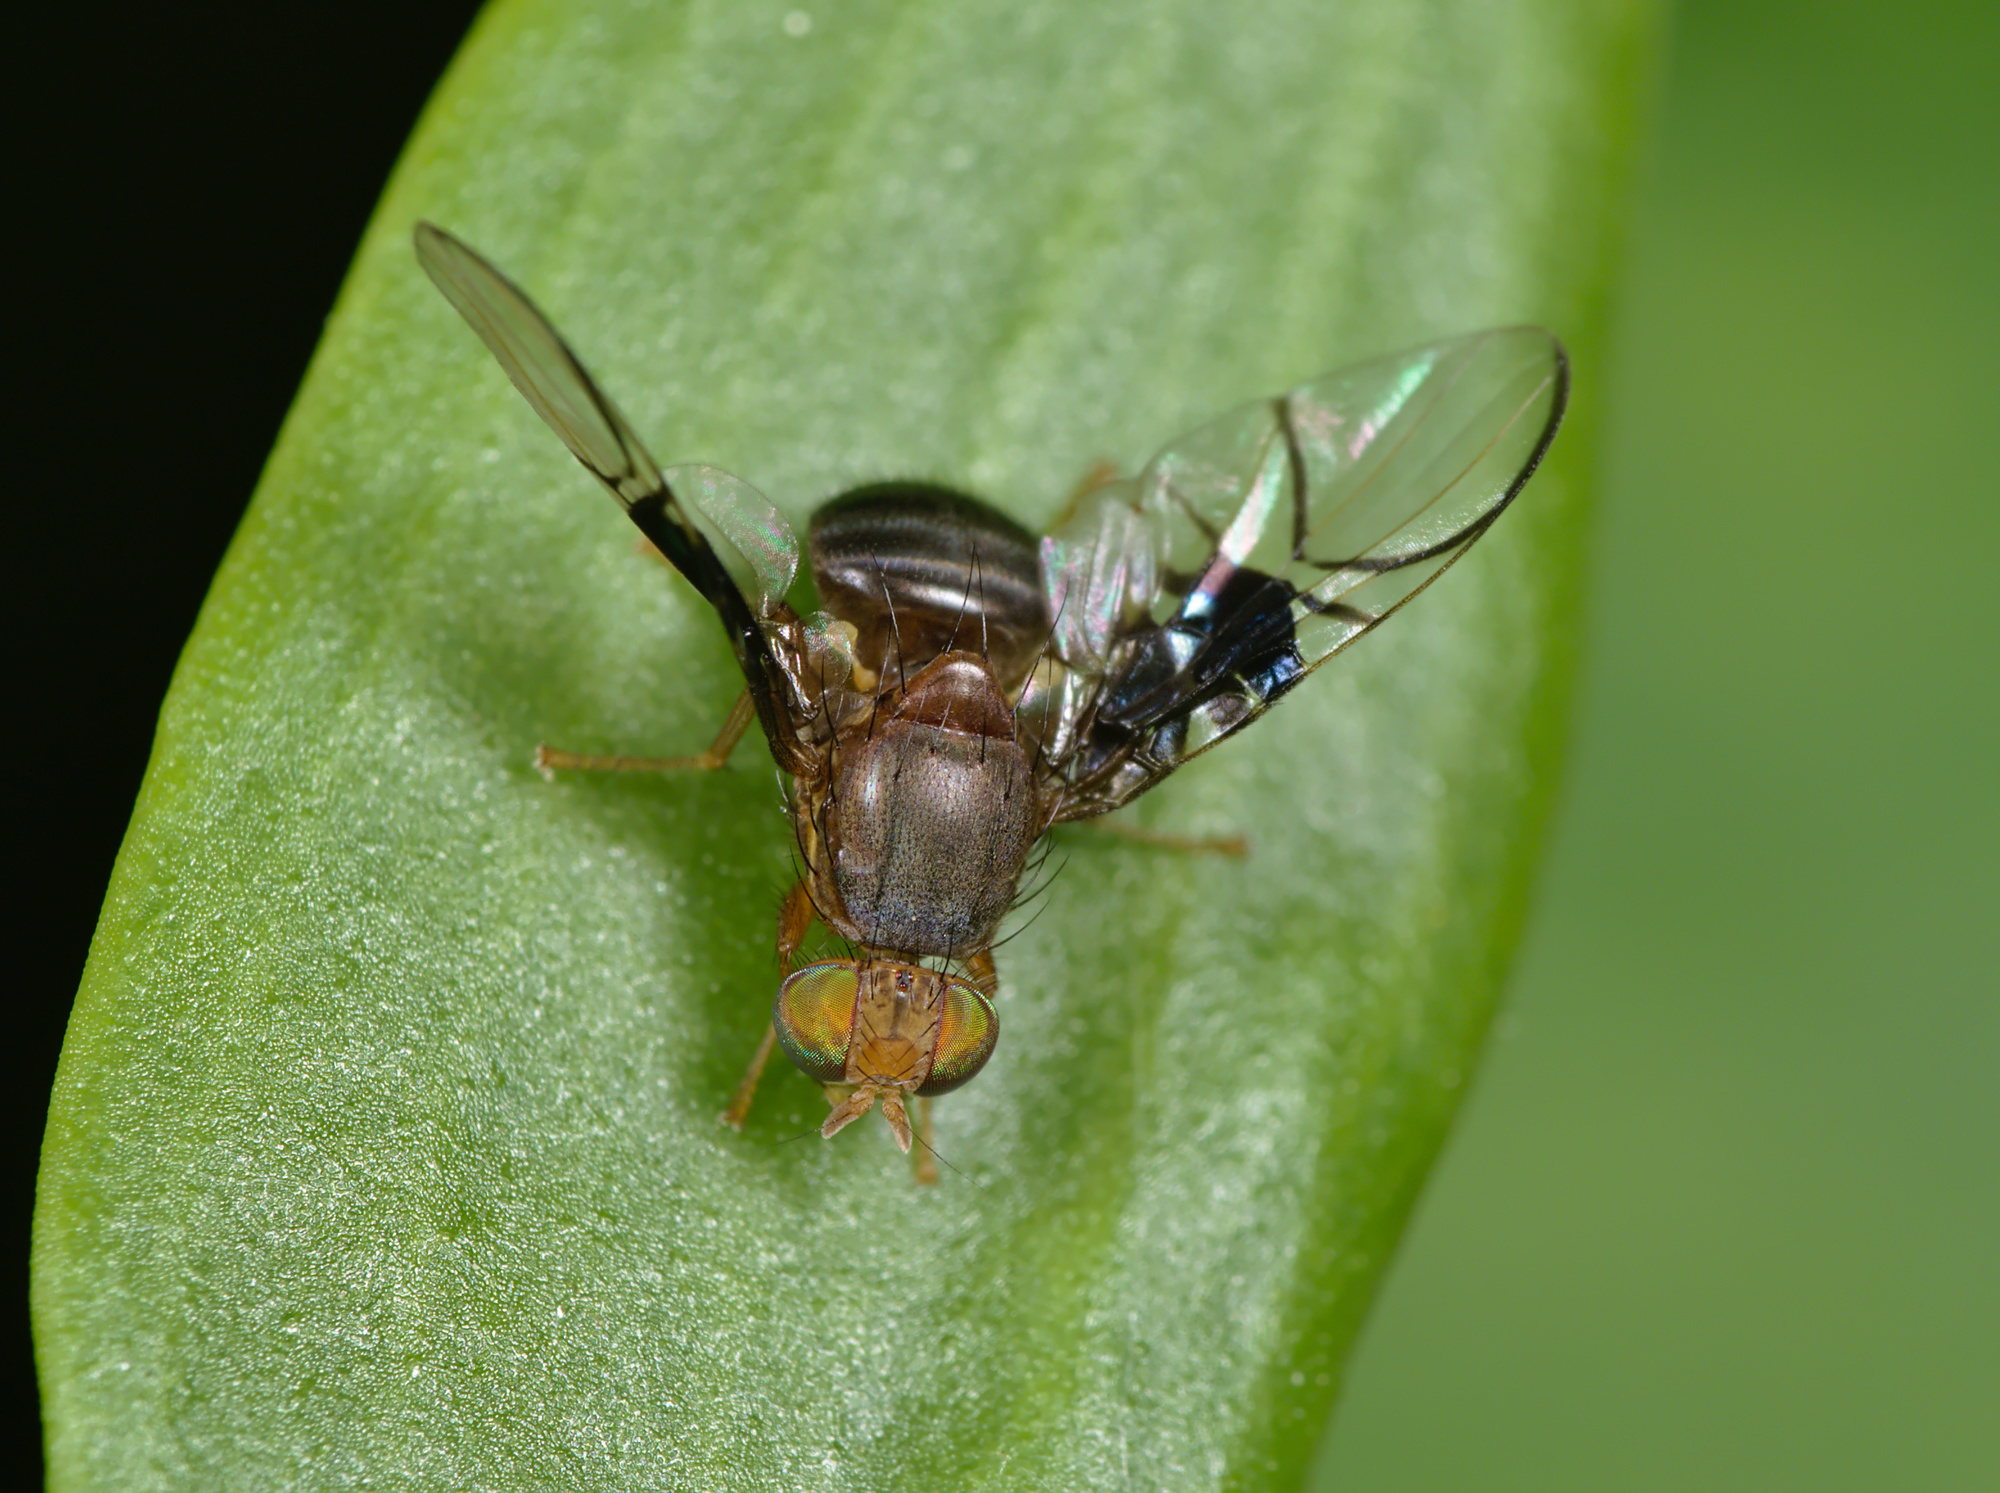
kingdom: Animalia
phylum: Arthropoda
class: Insecta
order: Diptera
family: Tephritidae
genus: Anomoia
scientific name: Anomoia purmunda
